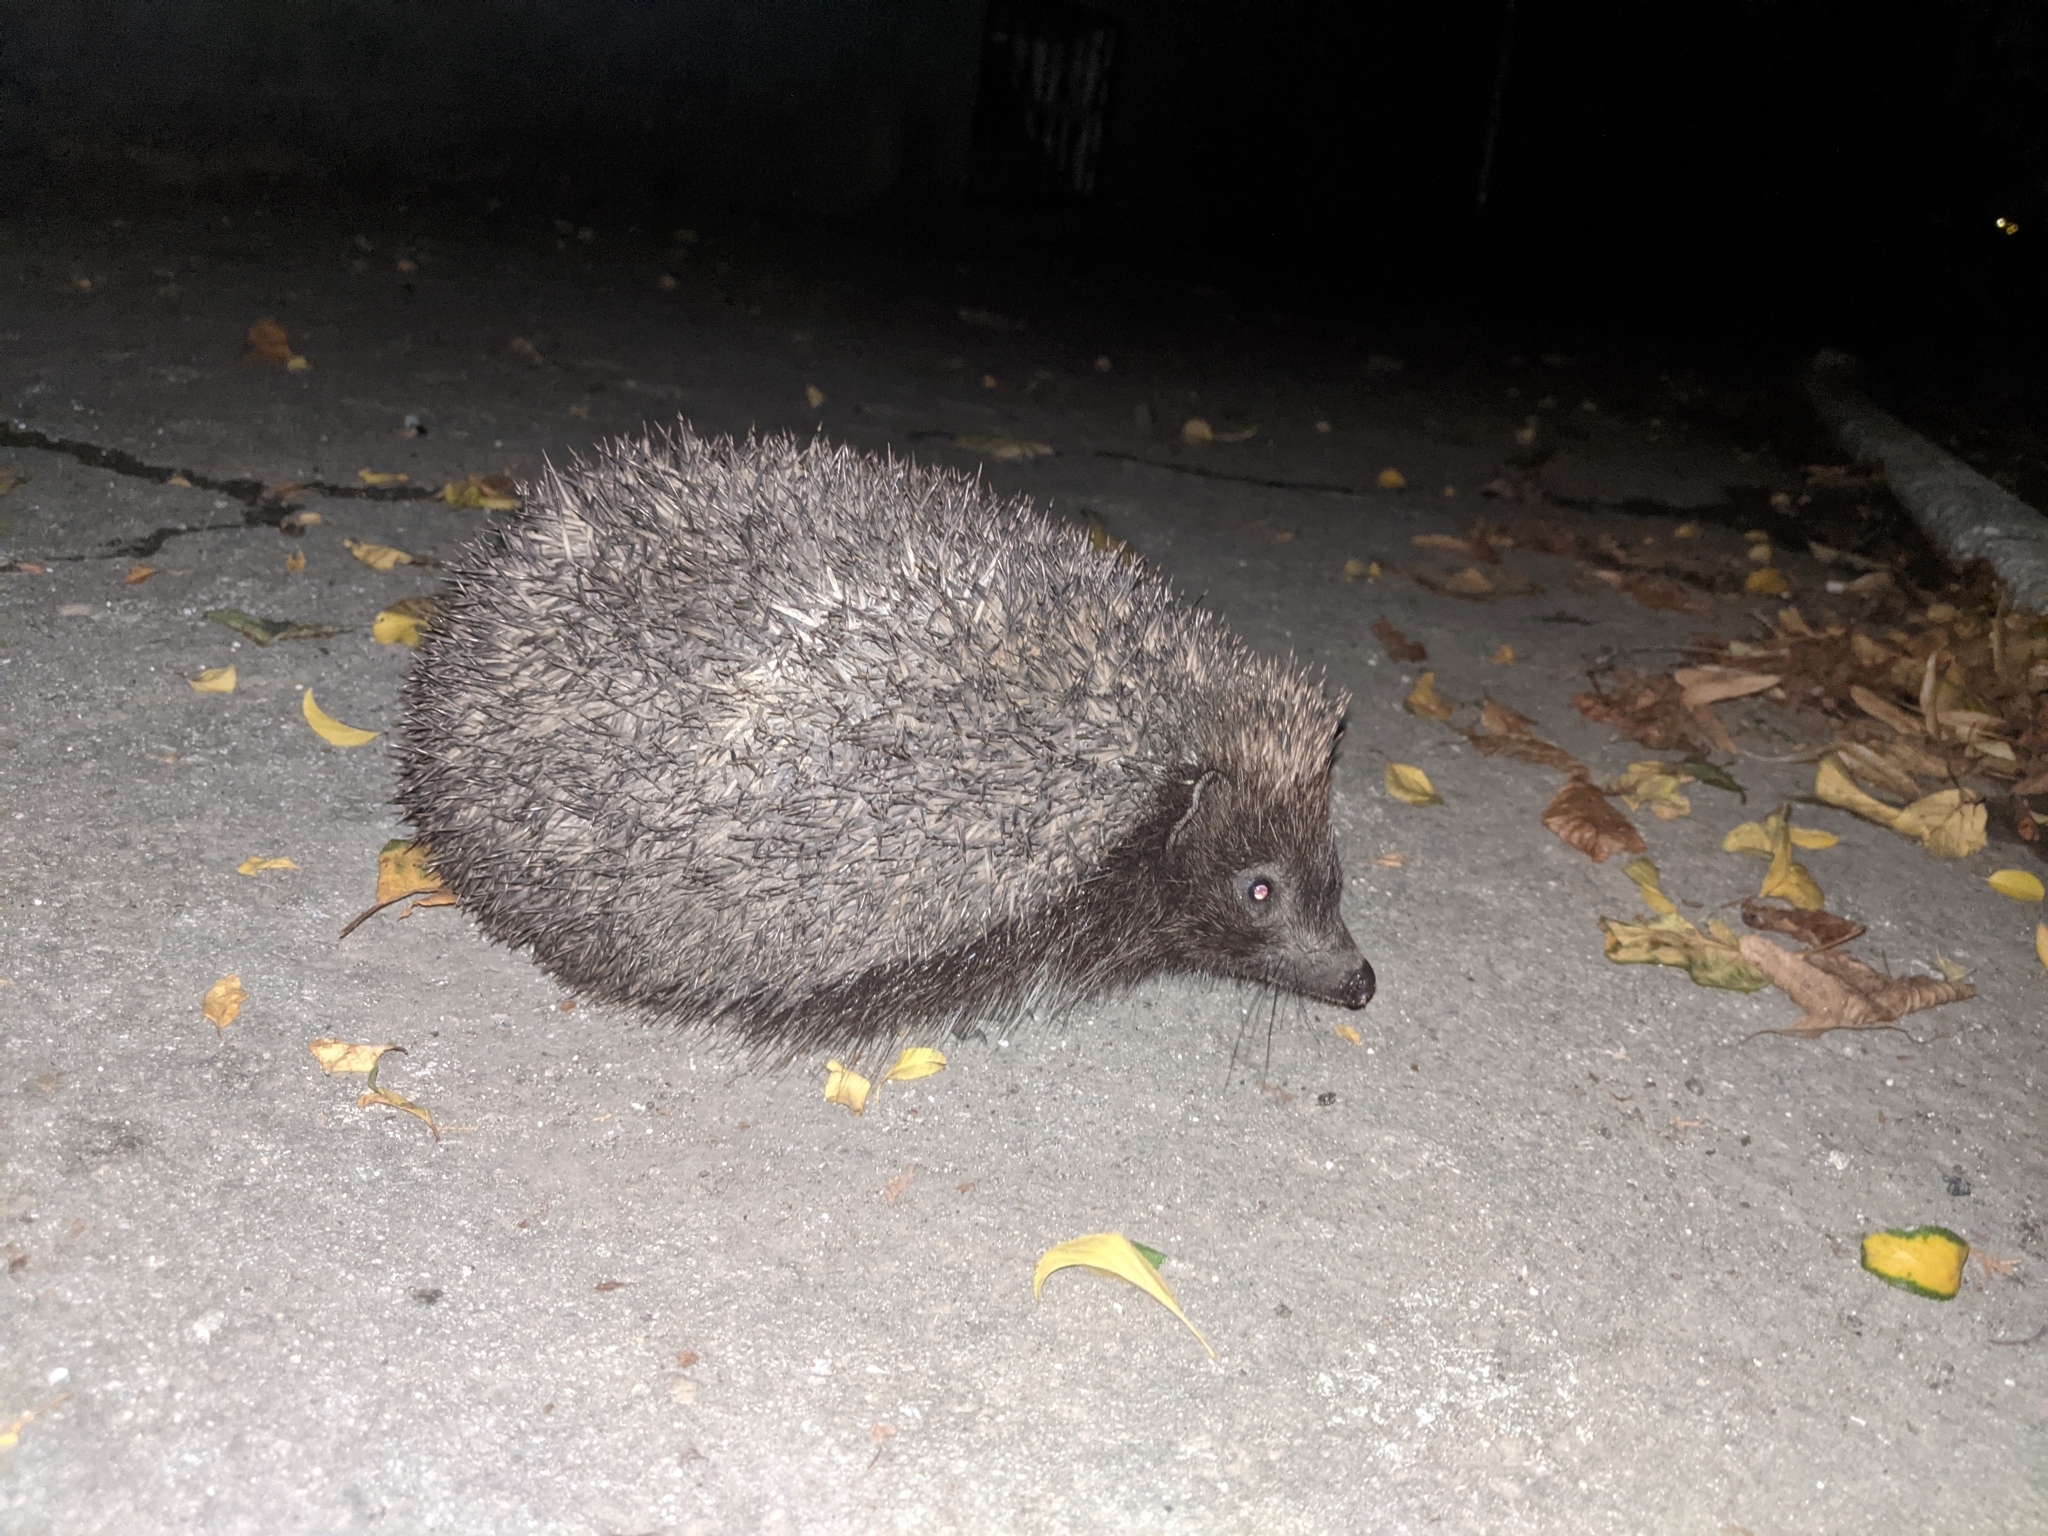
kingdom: Animalia
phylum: Chordata
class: Mammalia
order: Erinaceomorpha
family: Erinaceidae
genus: Erinaceus
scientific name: Erinaceus roumanicus
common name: Northern white-breasted hedgehog
